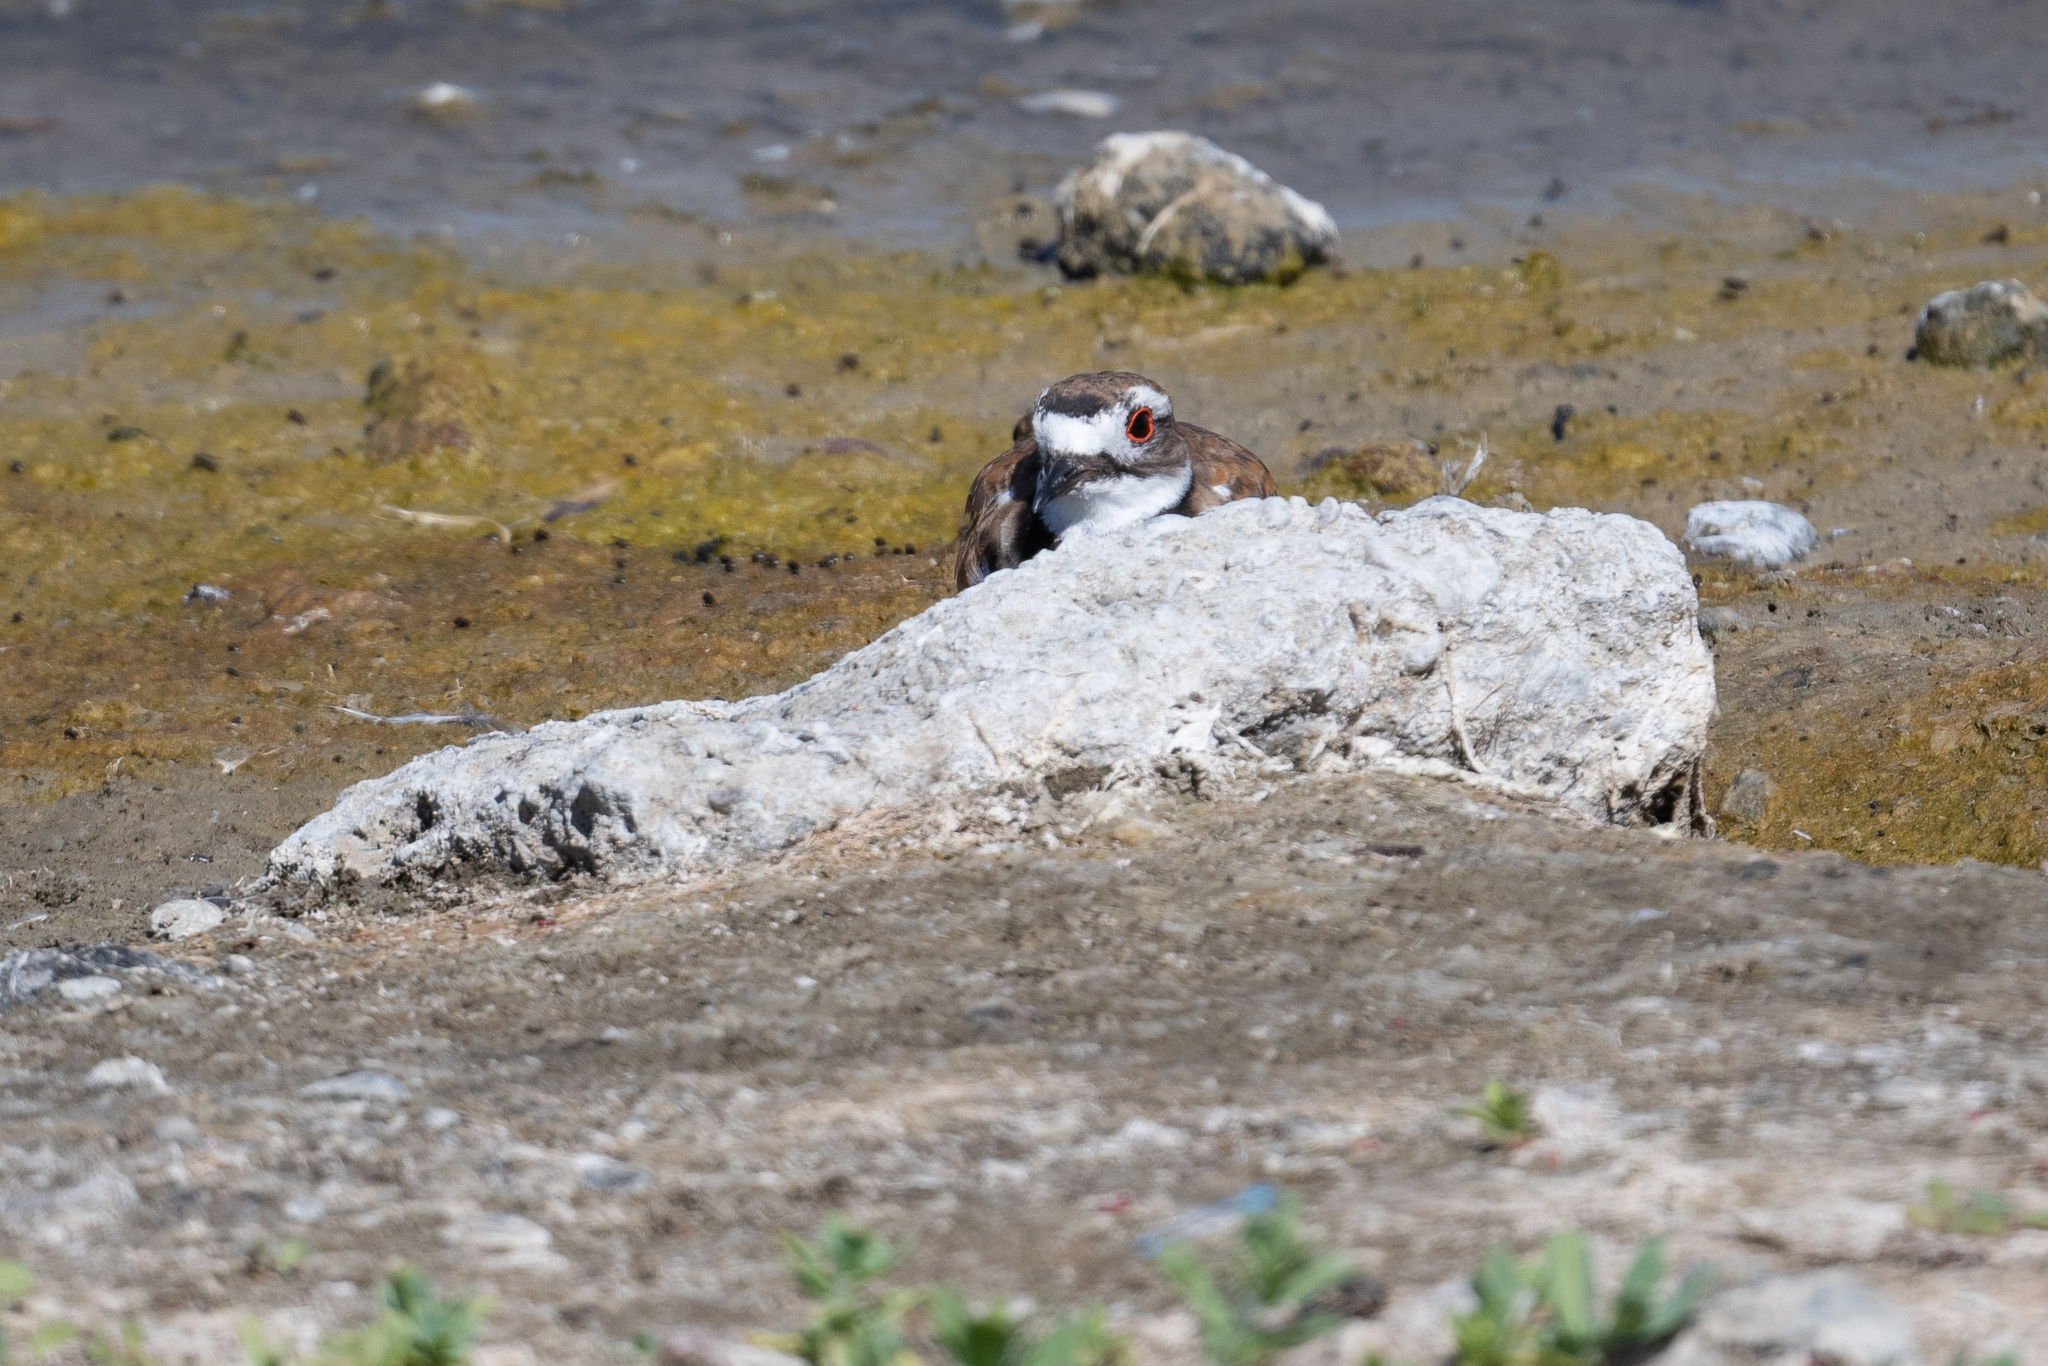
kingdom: Animalia
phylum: Chordata
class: Aves
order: Charadriiformes
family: Charadriidae
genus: Charadrius
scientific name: Charadrius vociferus
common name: Killdeer
